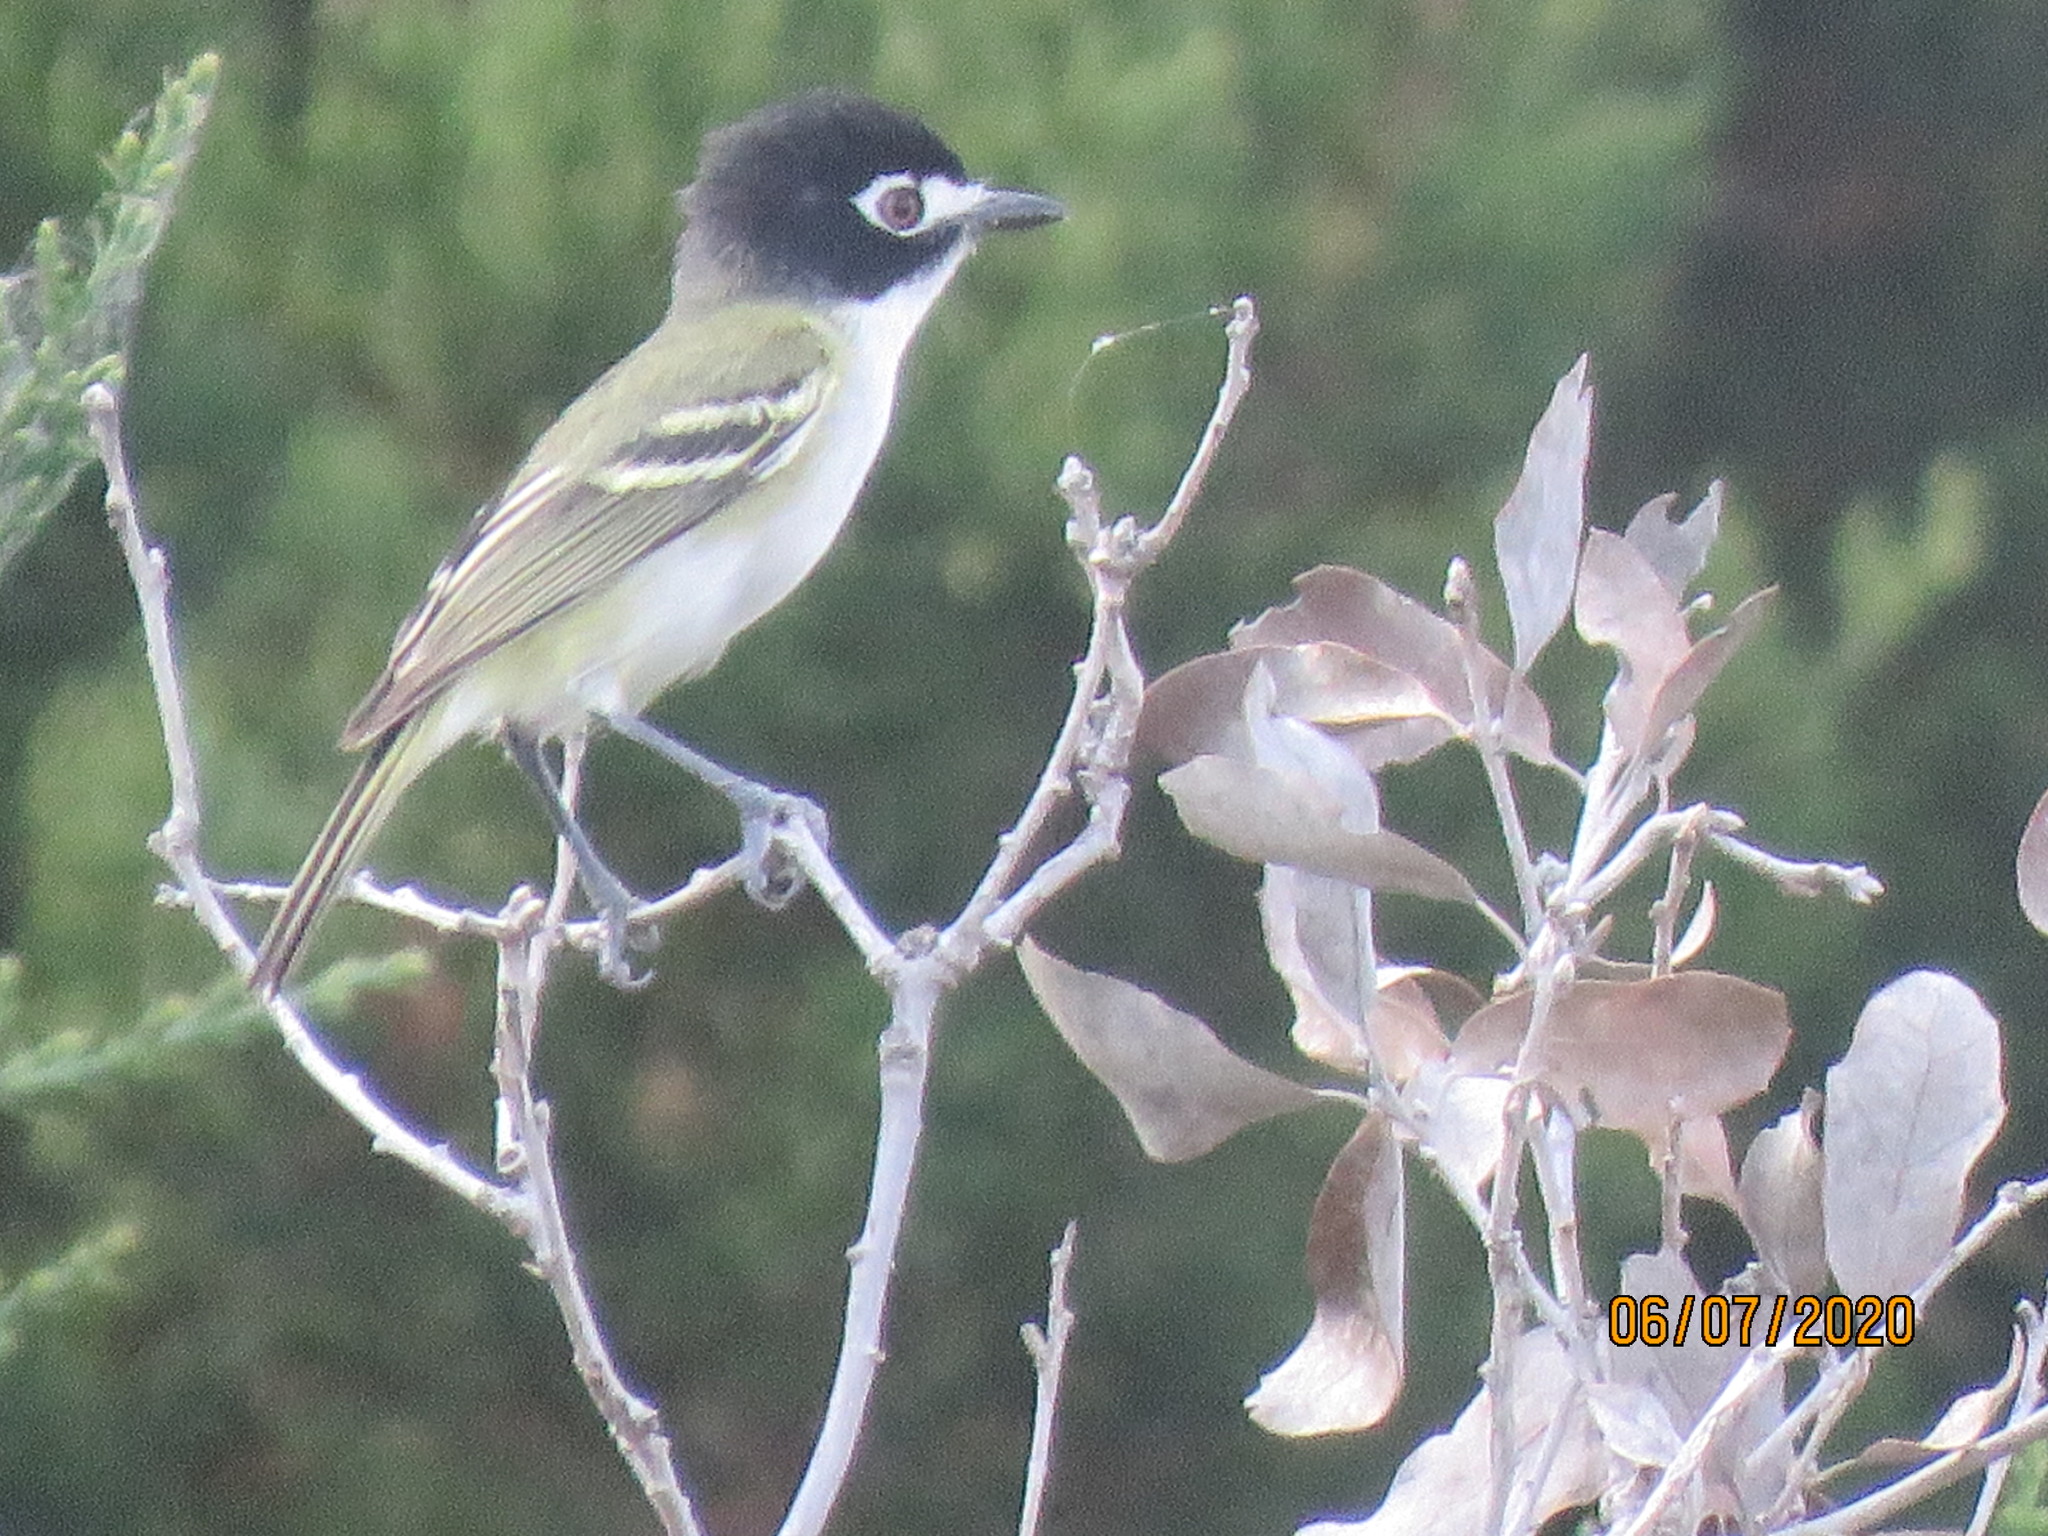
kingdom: Animalia
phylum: Chordata
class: Aves
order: Passeriformes
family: Vireonidae
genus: Vireo
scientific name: Vireo atricapilla
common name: Black-capped vireo
